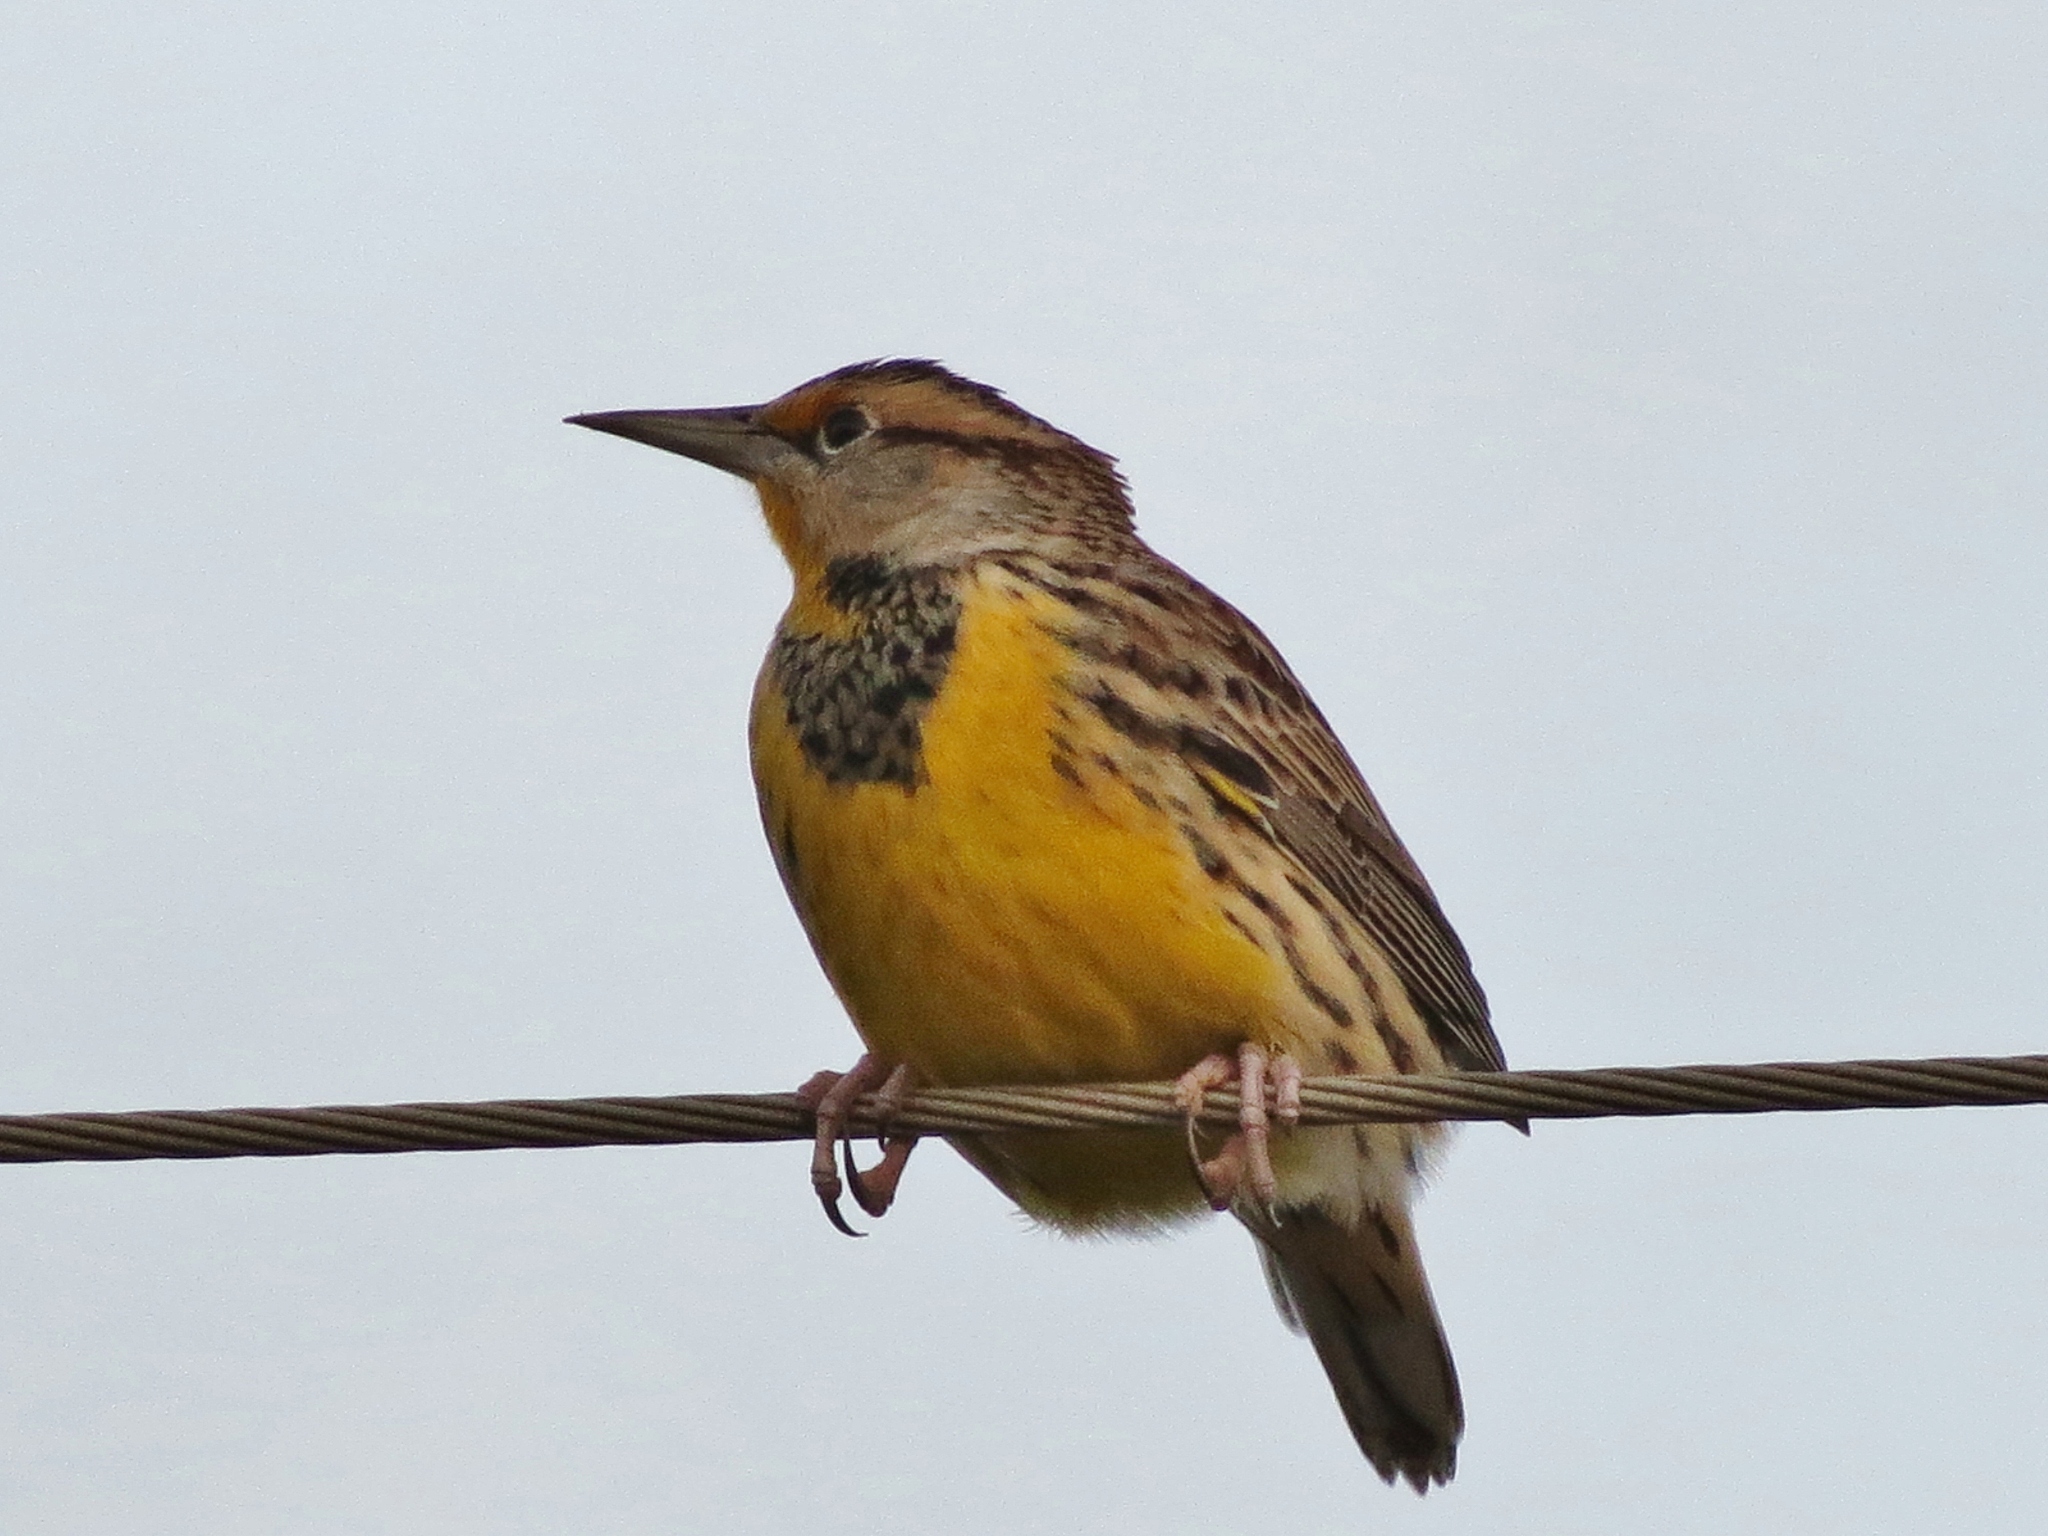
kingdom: Animalia
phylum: Chordata
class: Aves
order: Passeriformes
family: Icteridae
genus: Sturnella
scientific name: Sturnella
